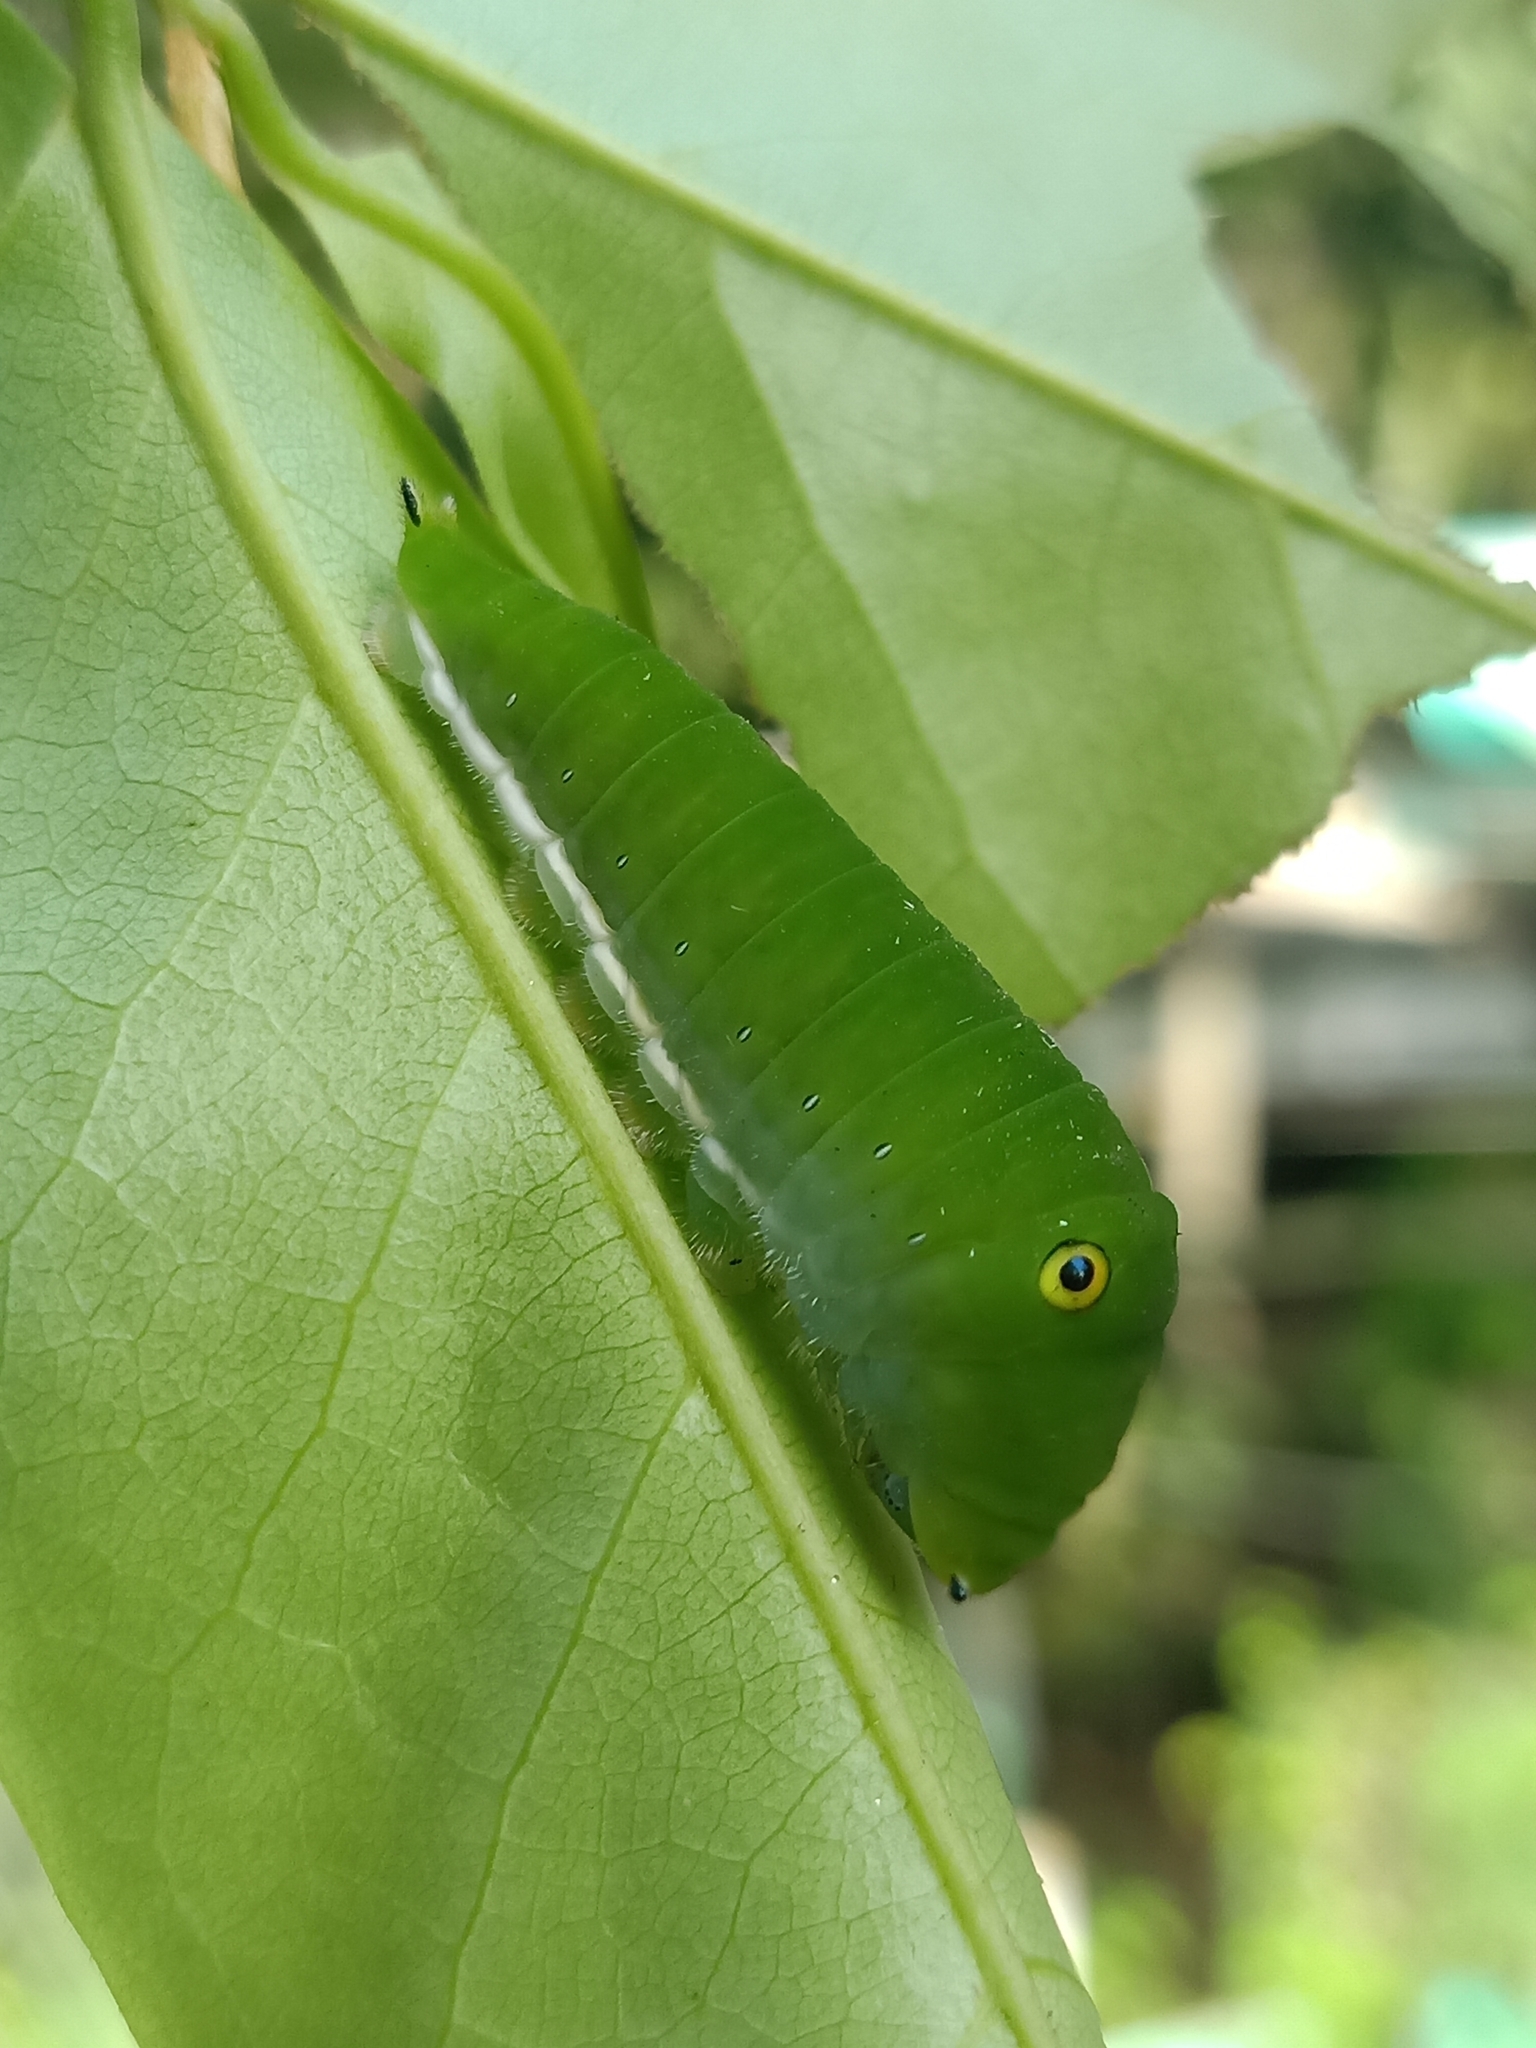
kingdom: Animalia
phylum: Arthropoda
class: Insecta
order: Lepidoptera
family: Papilionidae
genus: Graphium
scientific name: Graphium doson
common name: Common jay
